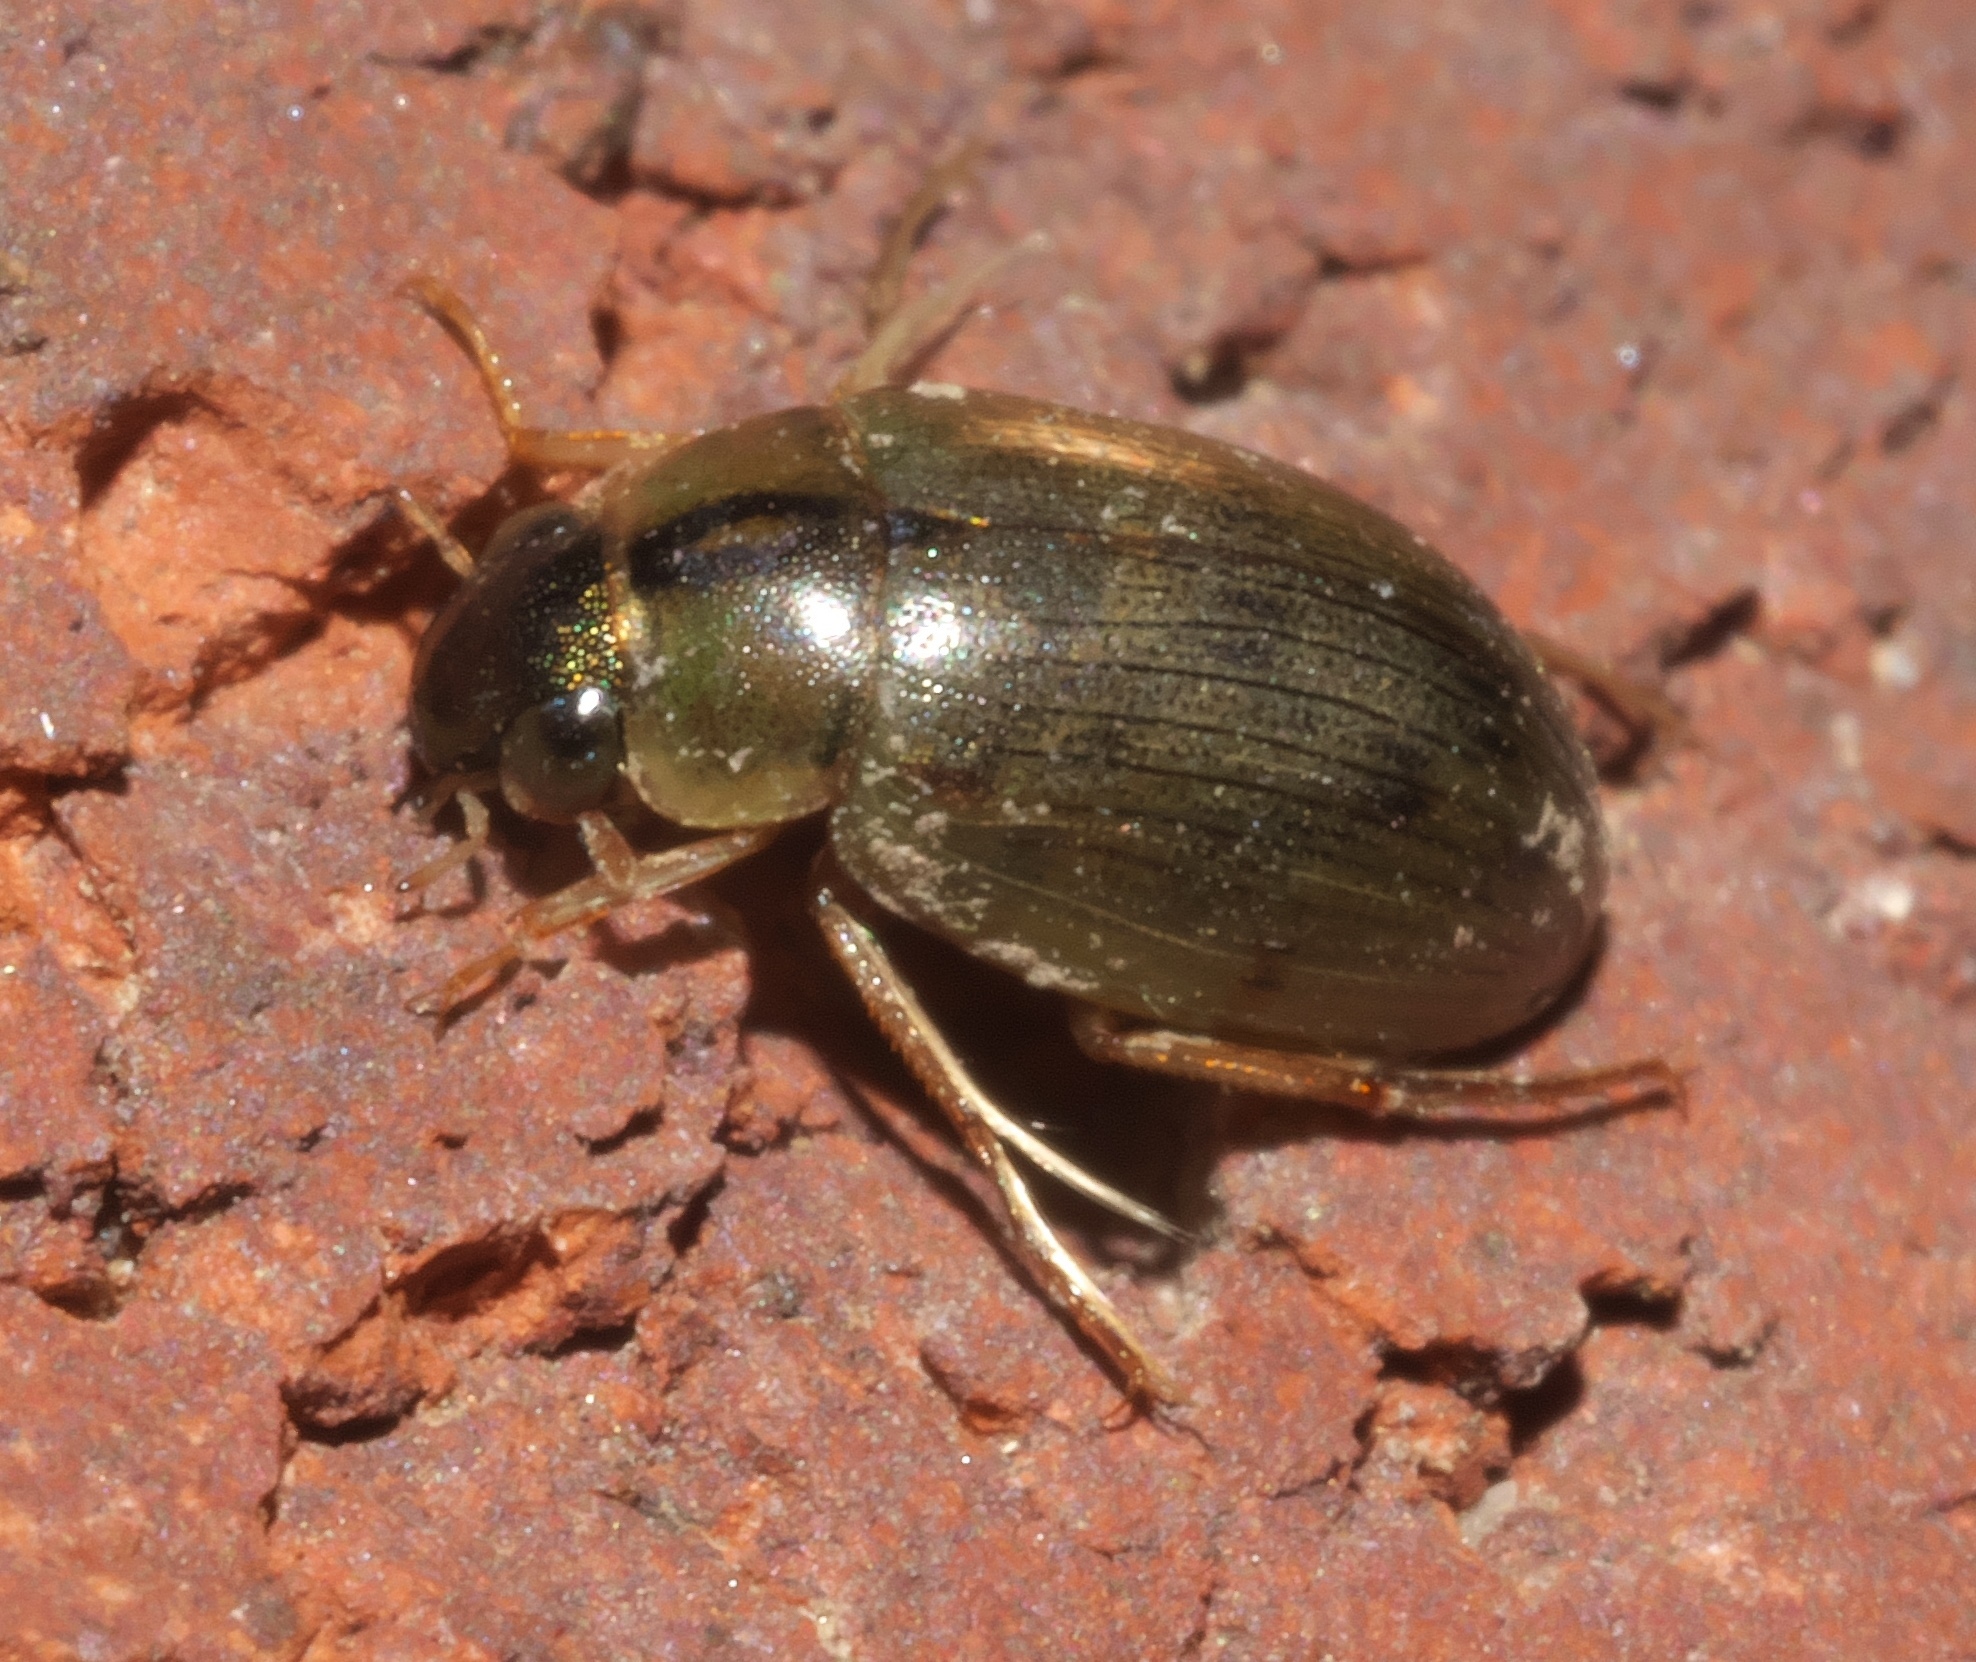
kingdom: Animalia
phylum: Arthropoda
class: Insecta
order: Coleoptera
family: Hydrophilidae
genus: Berosus
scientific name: Berosus
